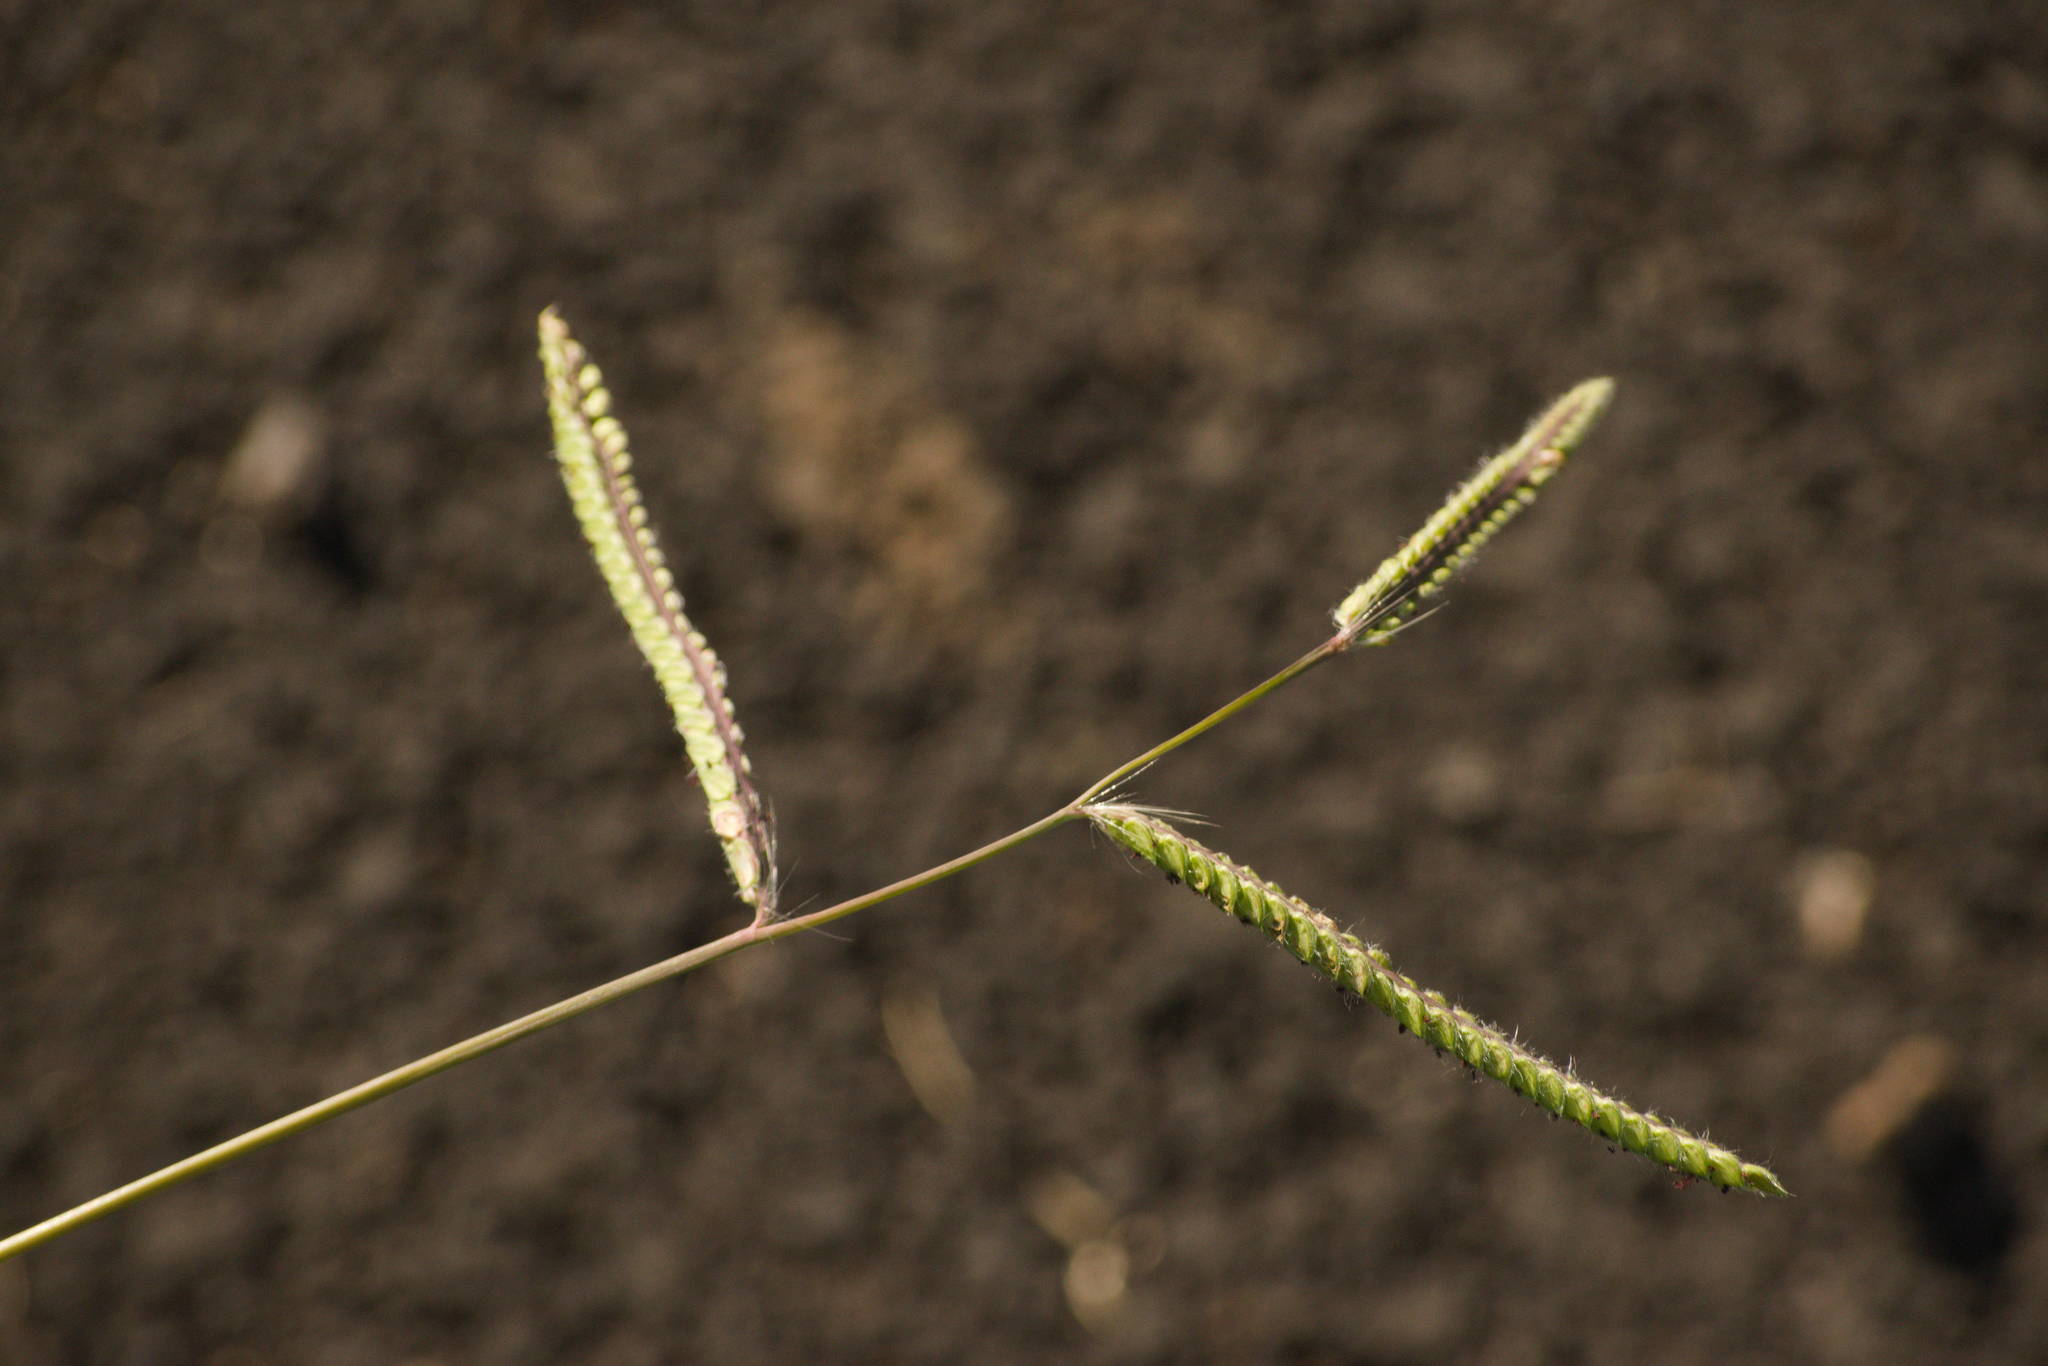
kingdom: Plantae
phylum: Tracheophyta
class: Liliopsida
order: Poales
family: Poaceae
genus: Paspalum
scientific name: Paspalum dilatatum
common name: Dallisgrass
